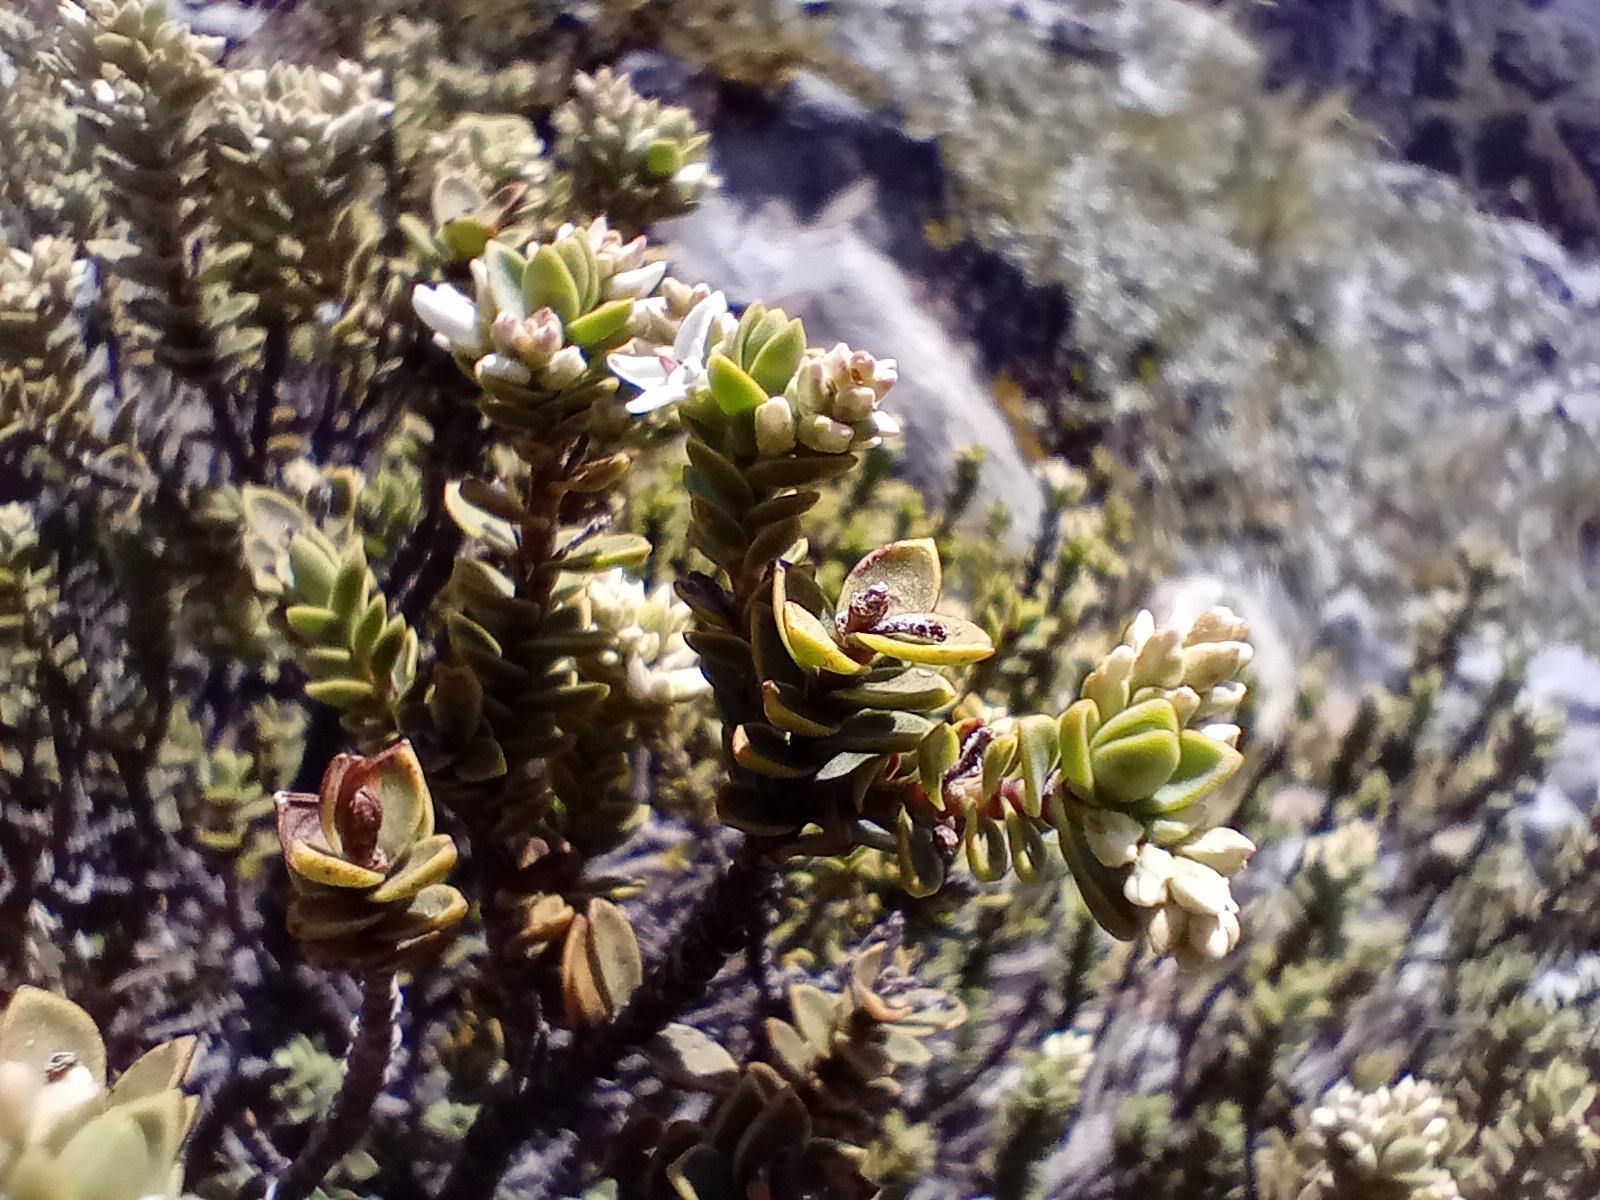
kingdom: Plantae
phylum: Tracheophyta
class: Magnoliopsida
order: Lamiales
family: Plantaginaceae
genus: Veronica
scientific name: Veronica buchananii
